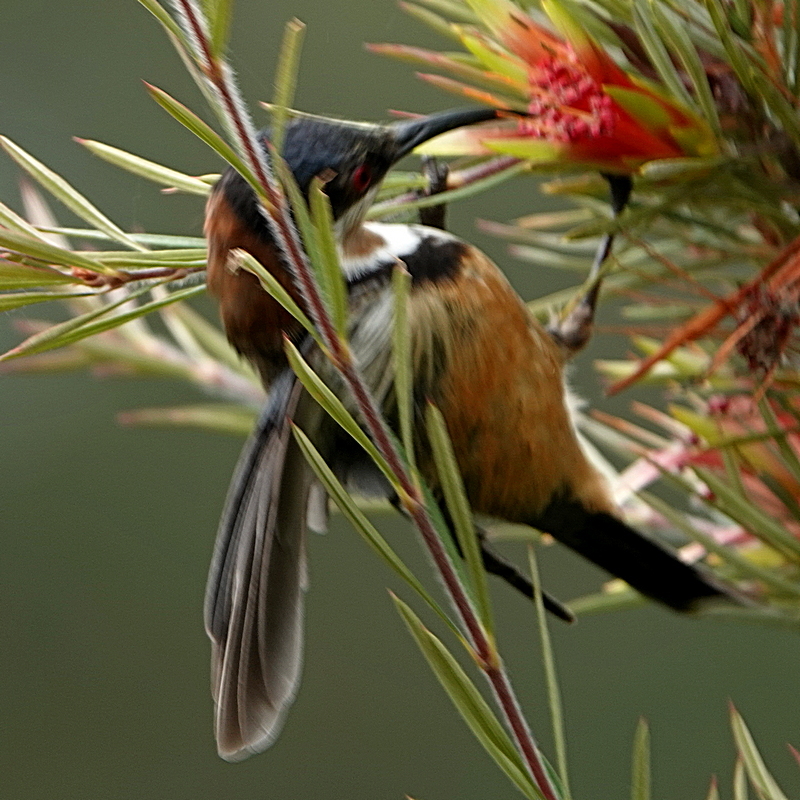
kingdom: Animalia
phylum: Chordata
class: Aves
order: Passeriformes
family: Meliphagidae
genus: Acanthorhynchus
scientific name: Acanthorhynchus tenuirostris
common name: Eastern spinebill
